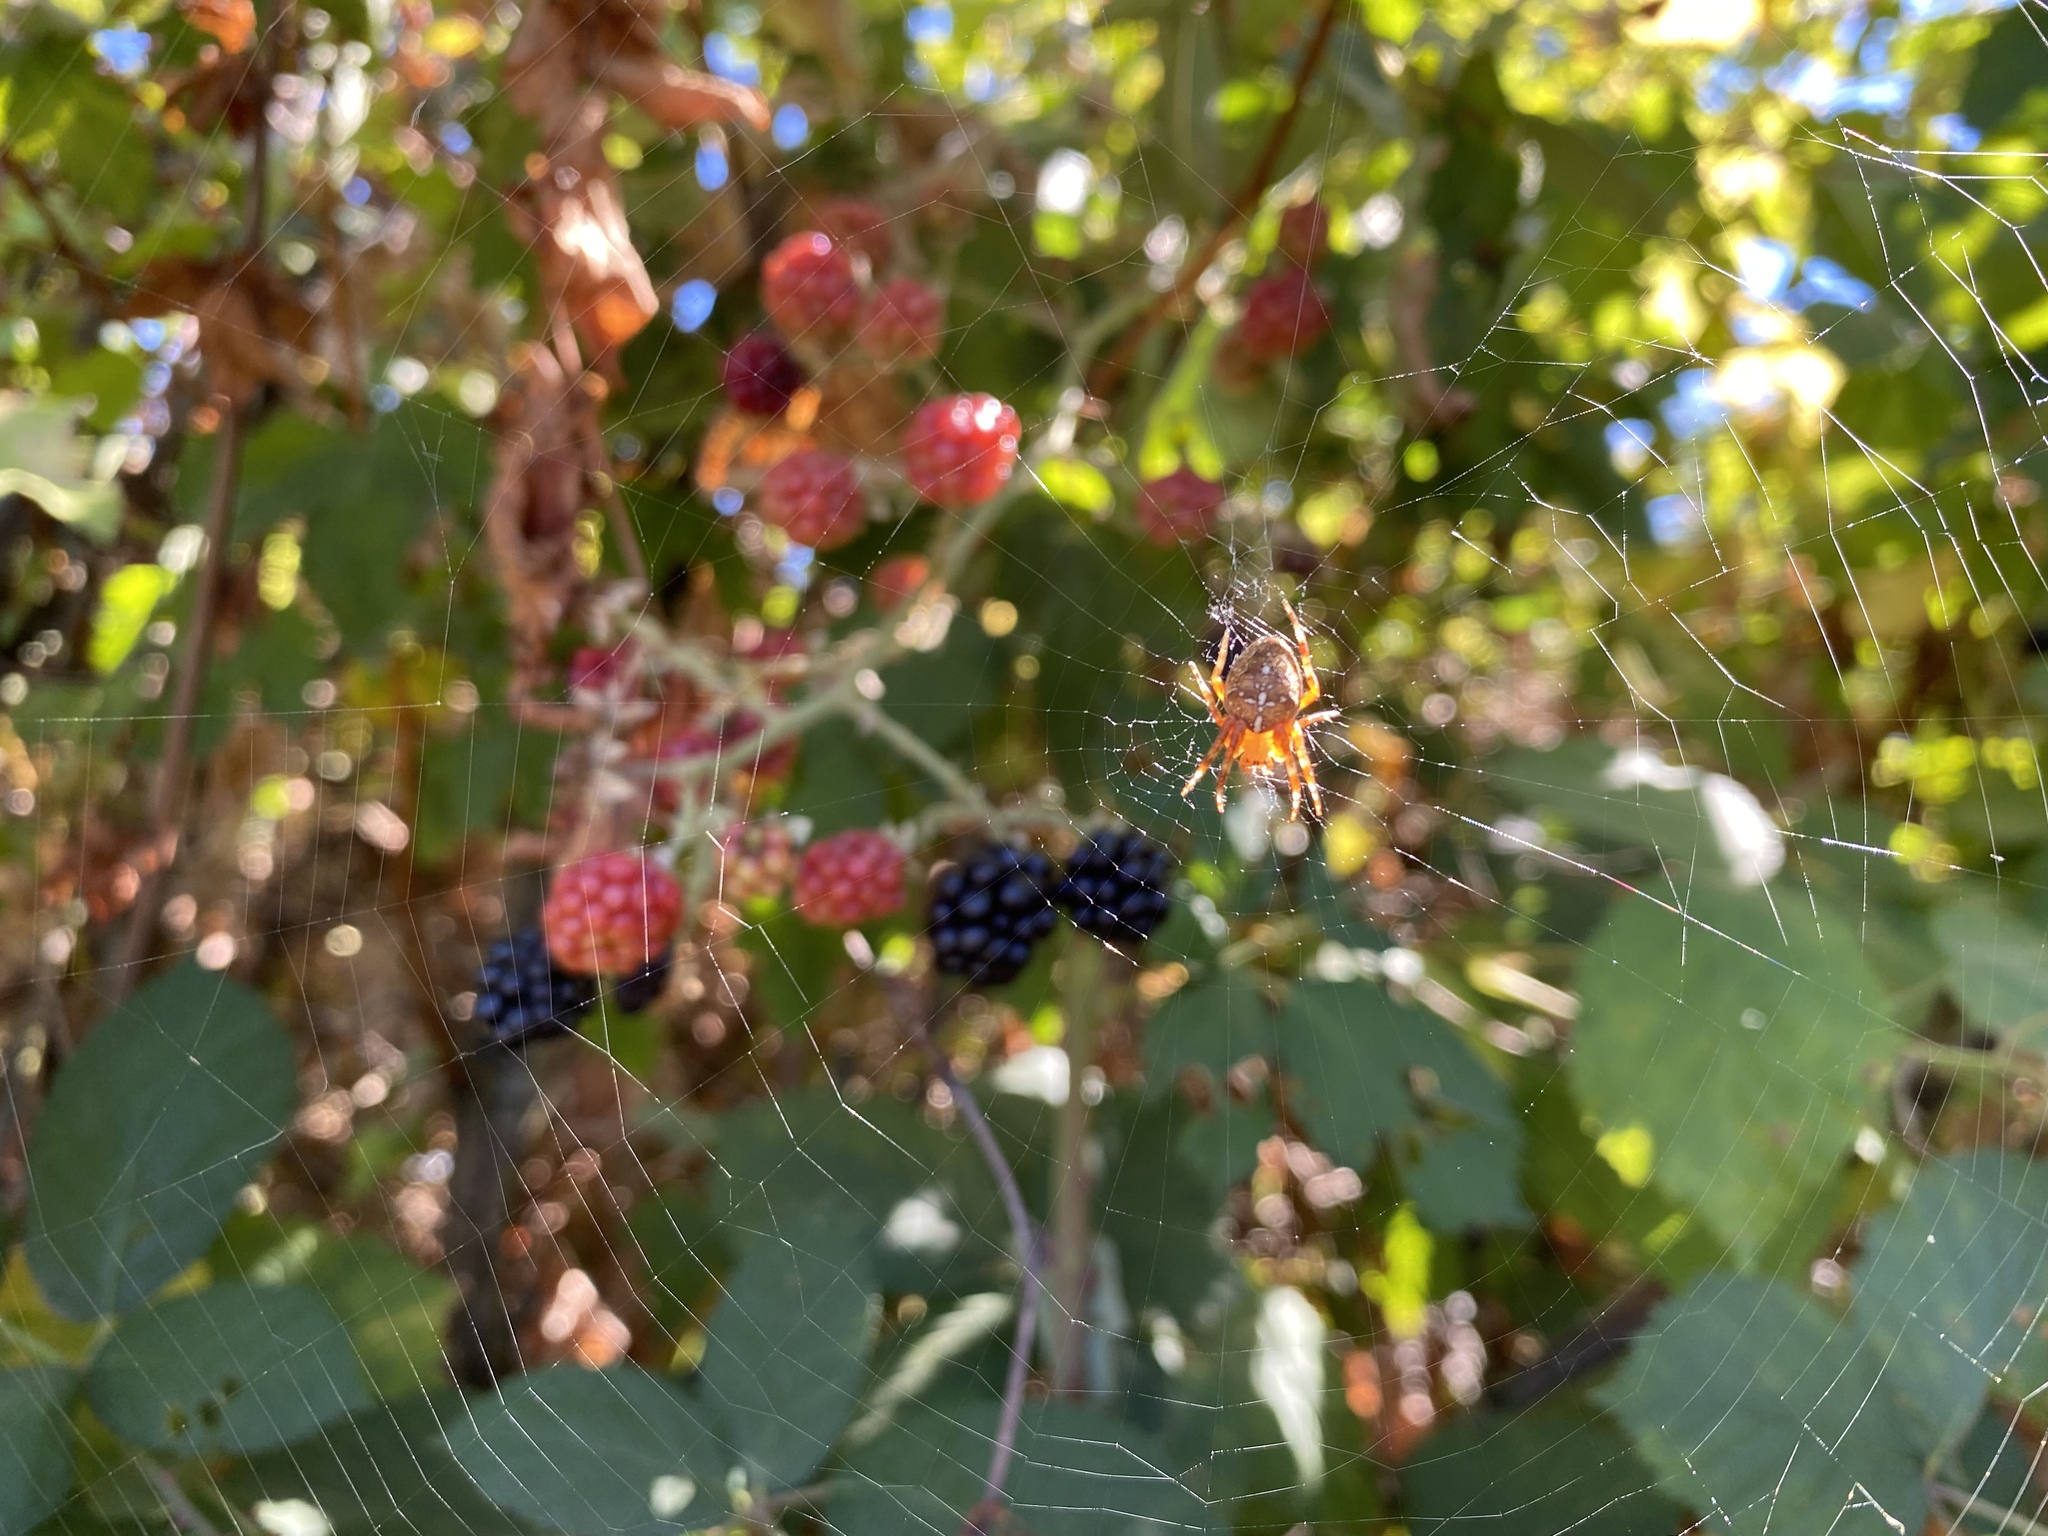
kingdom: Animalia
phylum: Arthropoda
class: Arachnida
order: Araneae
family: Araneidae
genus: Araneus
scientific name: Araneus diadematus
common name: Cross orbweaver
